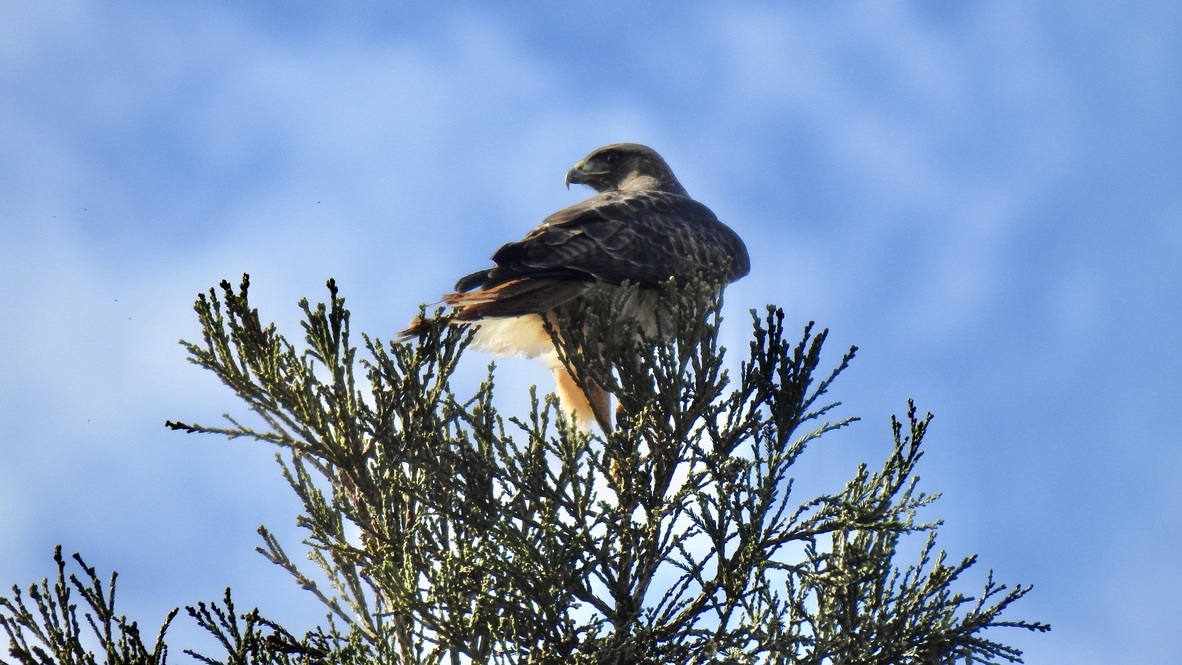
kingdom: Animalia
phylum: Chordata
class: Aves
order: Accipitriformes
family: Accipitridae
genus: Buteo
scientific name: Buteo jamaicensis
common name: Red-tailed hawk
